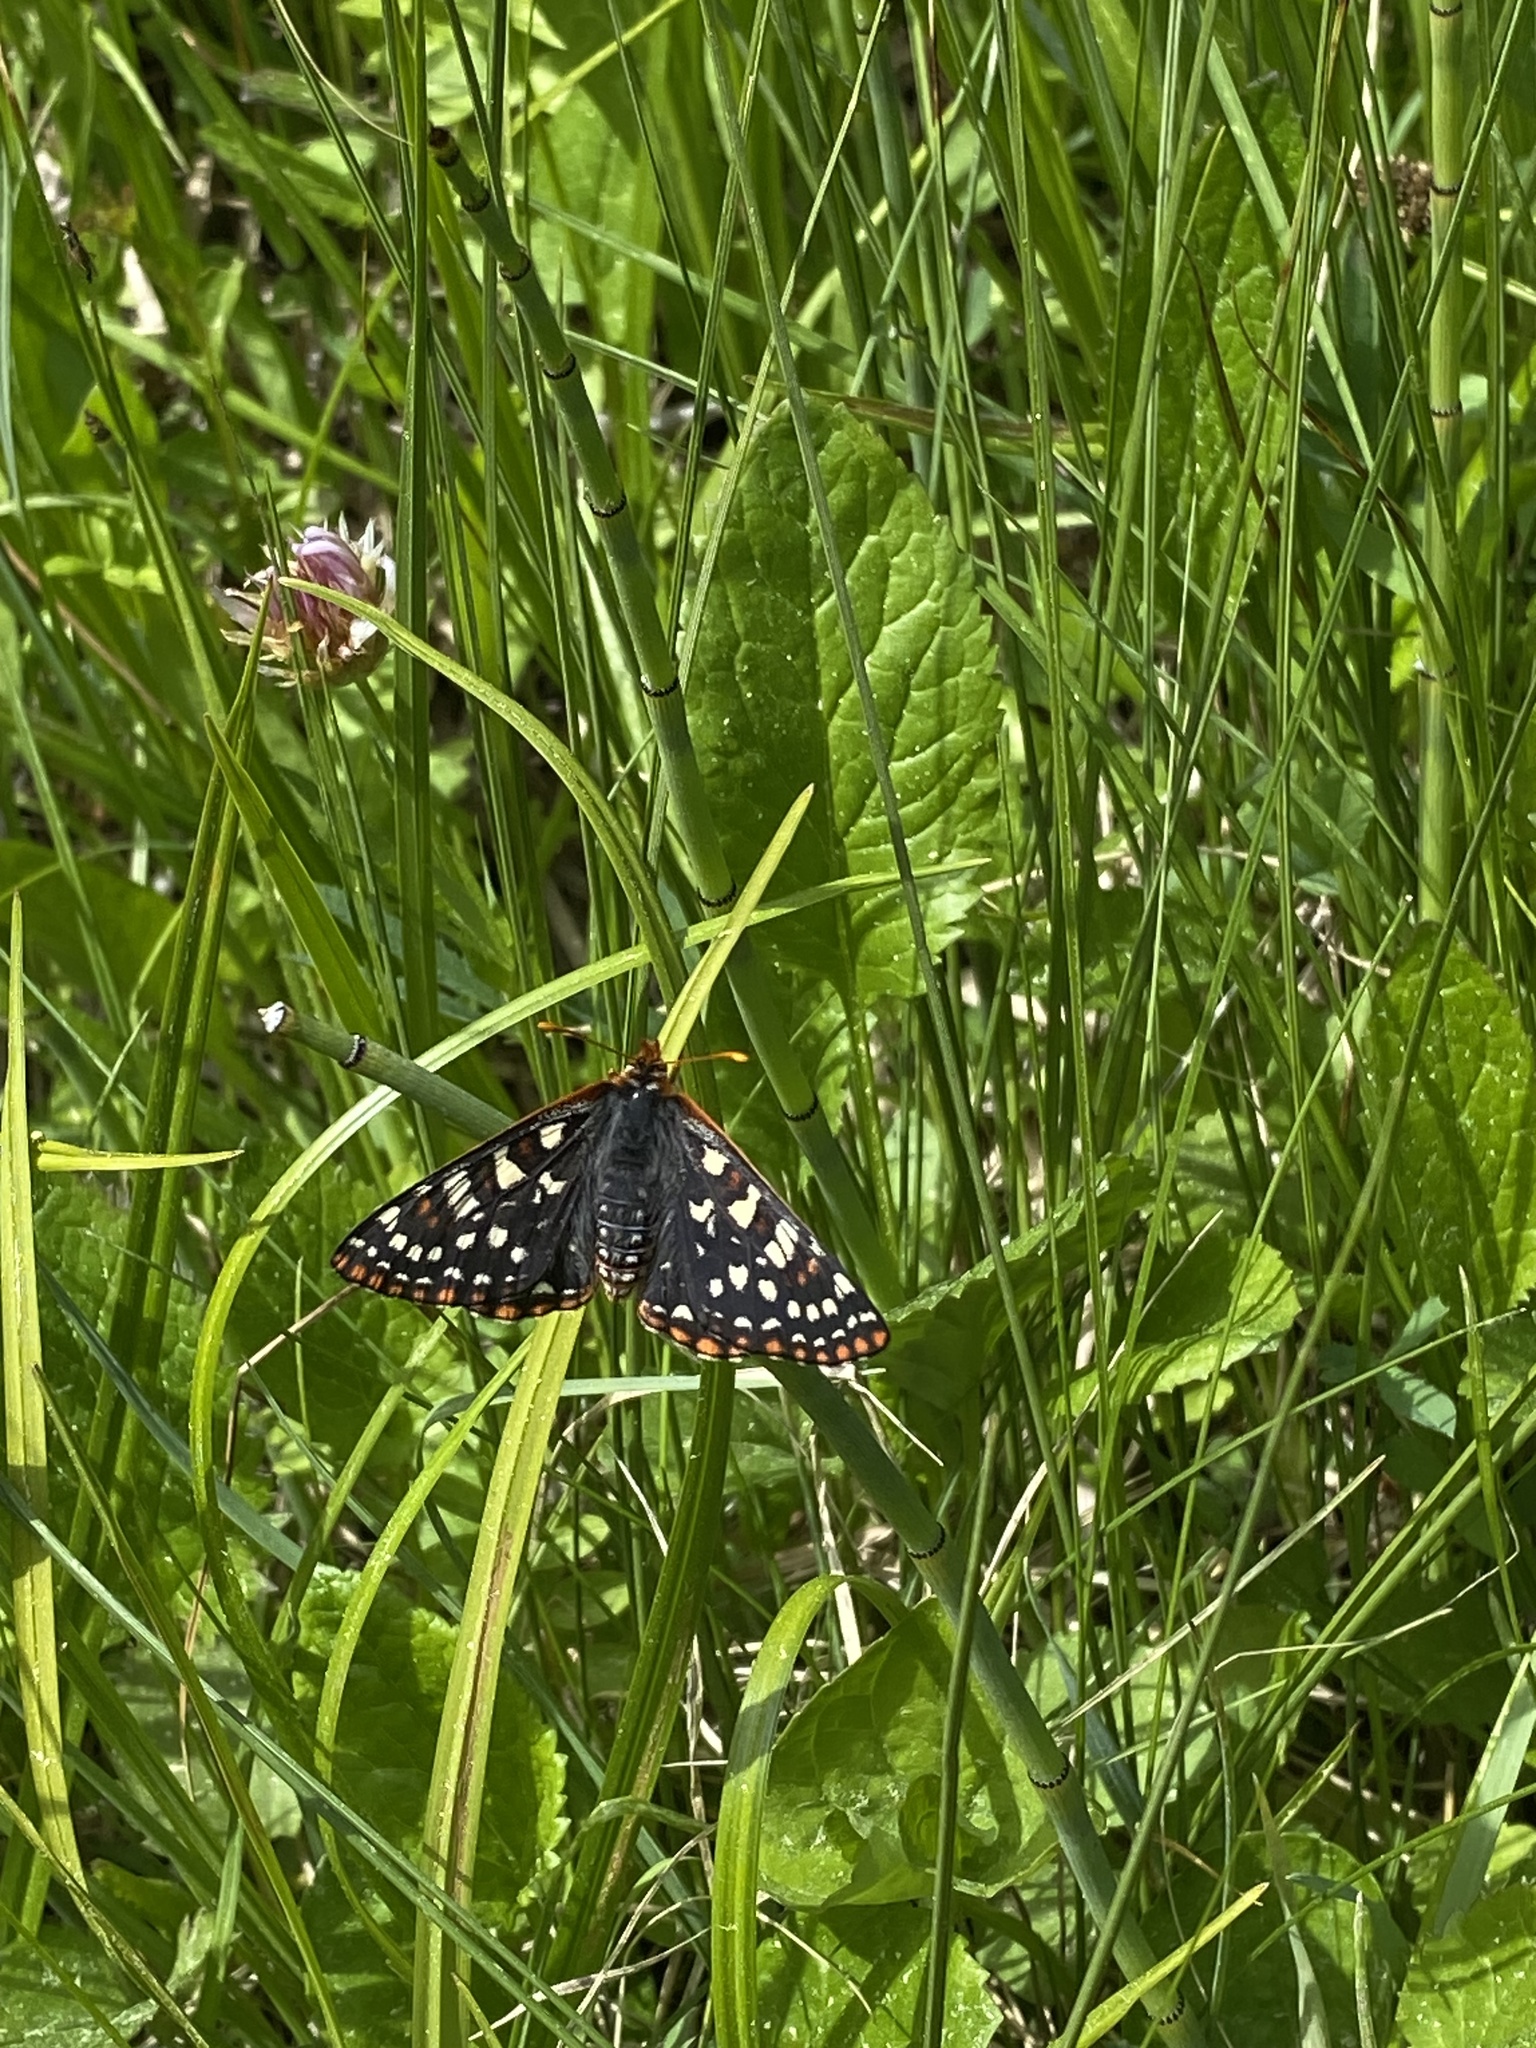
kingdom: Animalia
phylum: Arthropoda
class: Insecta
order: Lepidoptera
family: Nymphalidae
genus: Occidryas
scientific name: Occidryas colon
